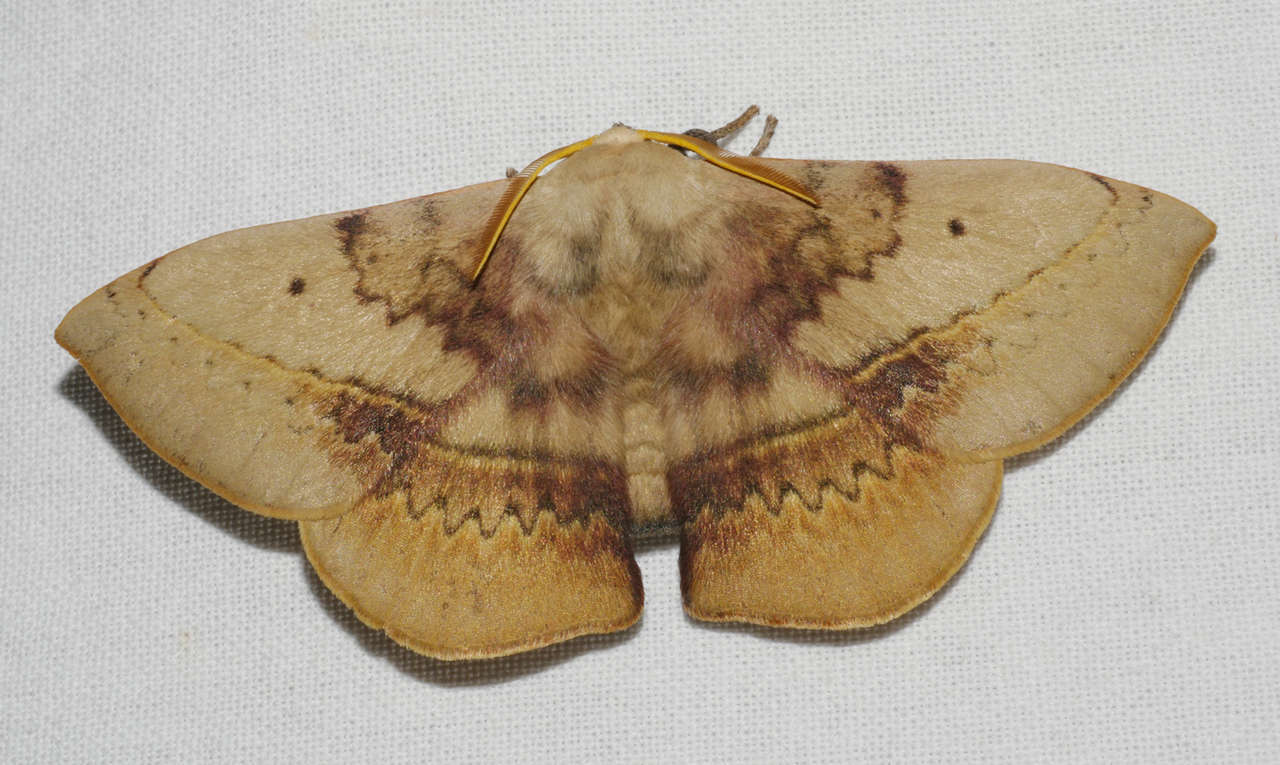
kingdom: Animalia
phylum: Arthropoda
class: Insecta
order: Lepidoptera
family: Anthelidae
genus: Anthela
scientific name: Anthela varia
